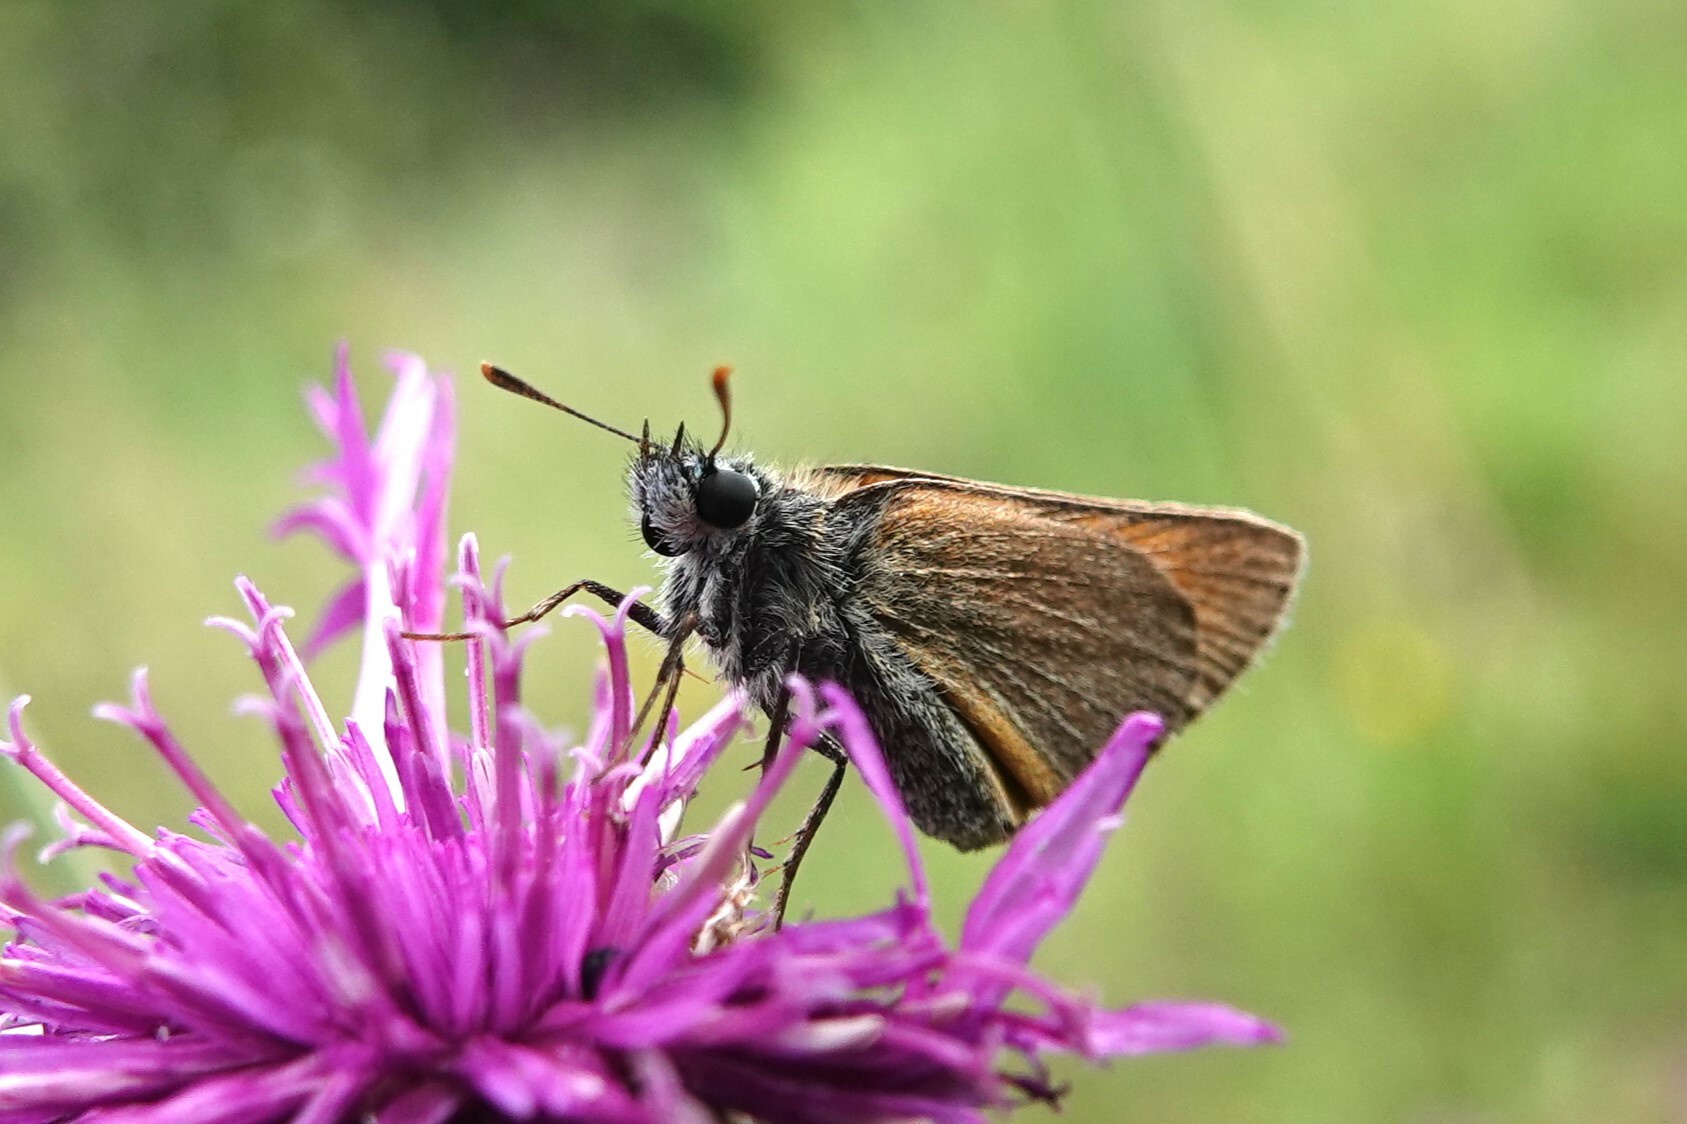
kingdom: Animalia
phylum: Arthropoda
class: Insecta
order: Lepidoptera
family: Hesperiidae
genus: Thymelicus
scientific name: Thymelicus sylvestris
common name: Small skipper
